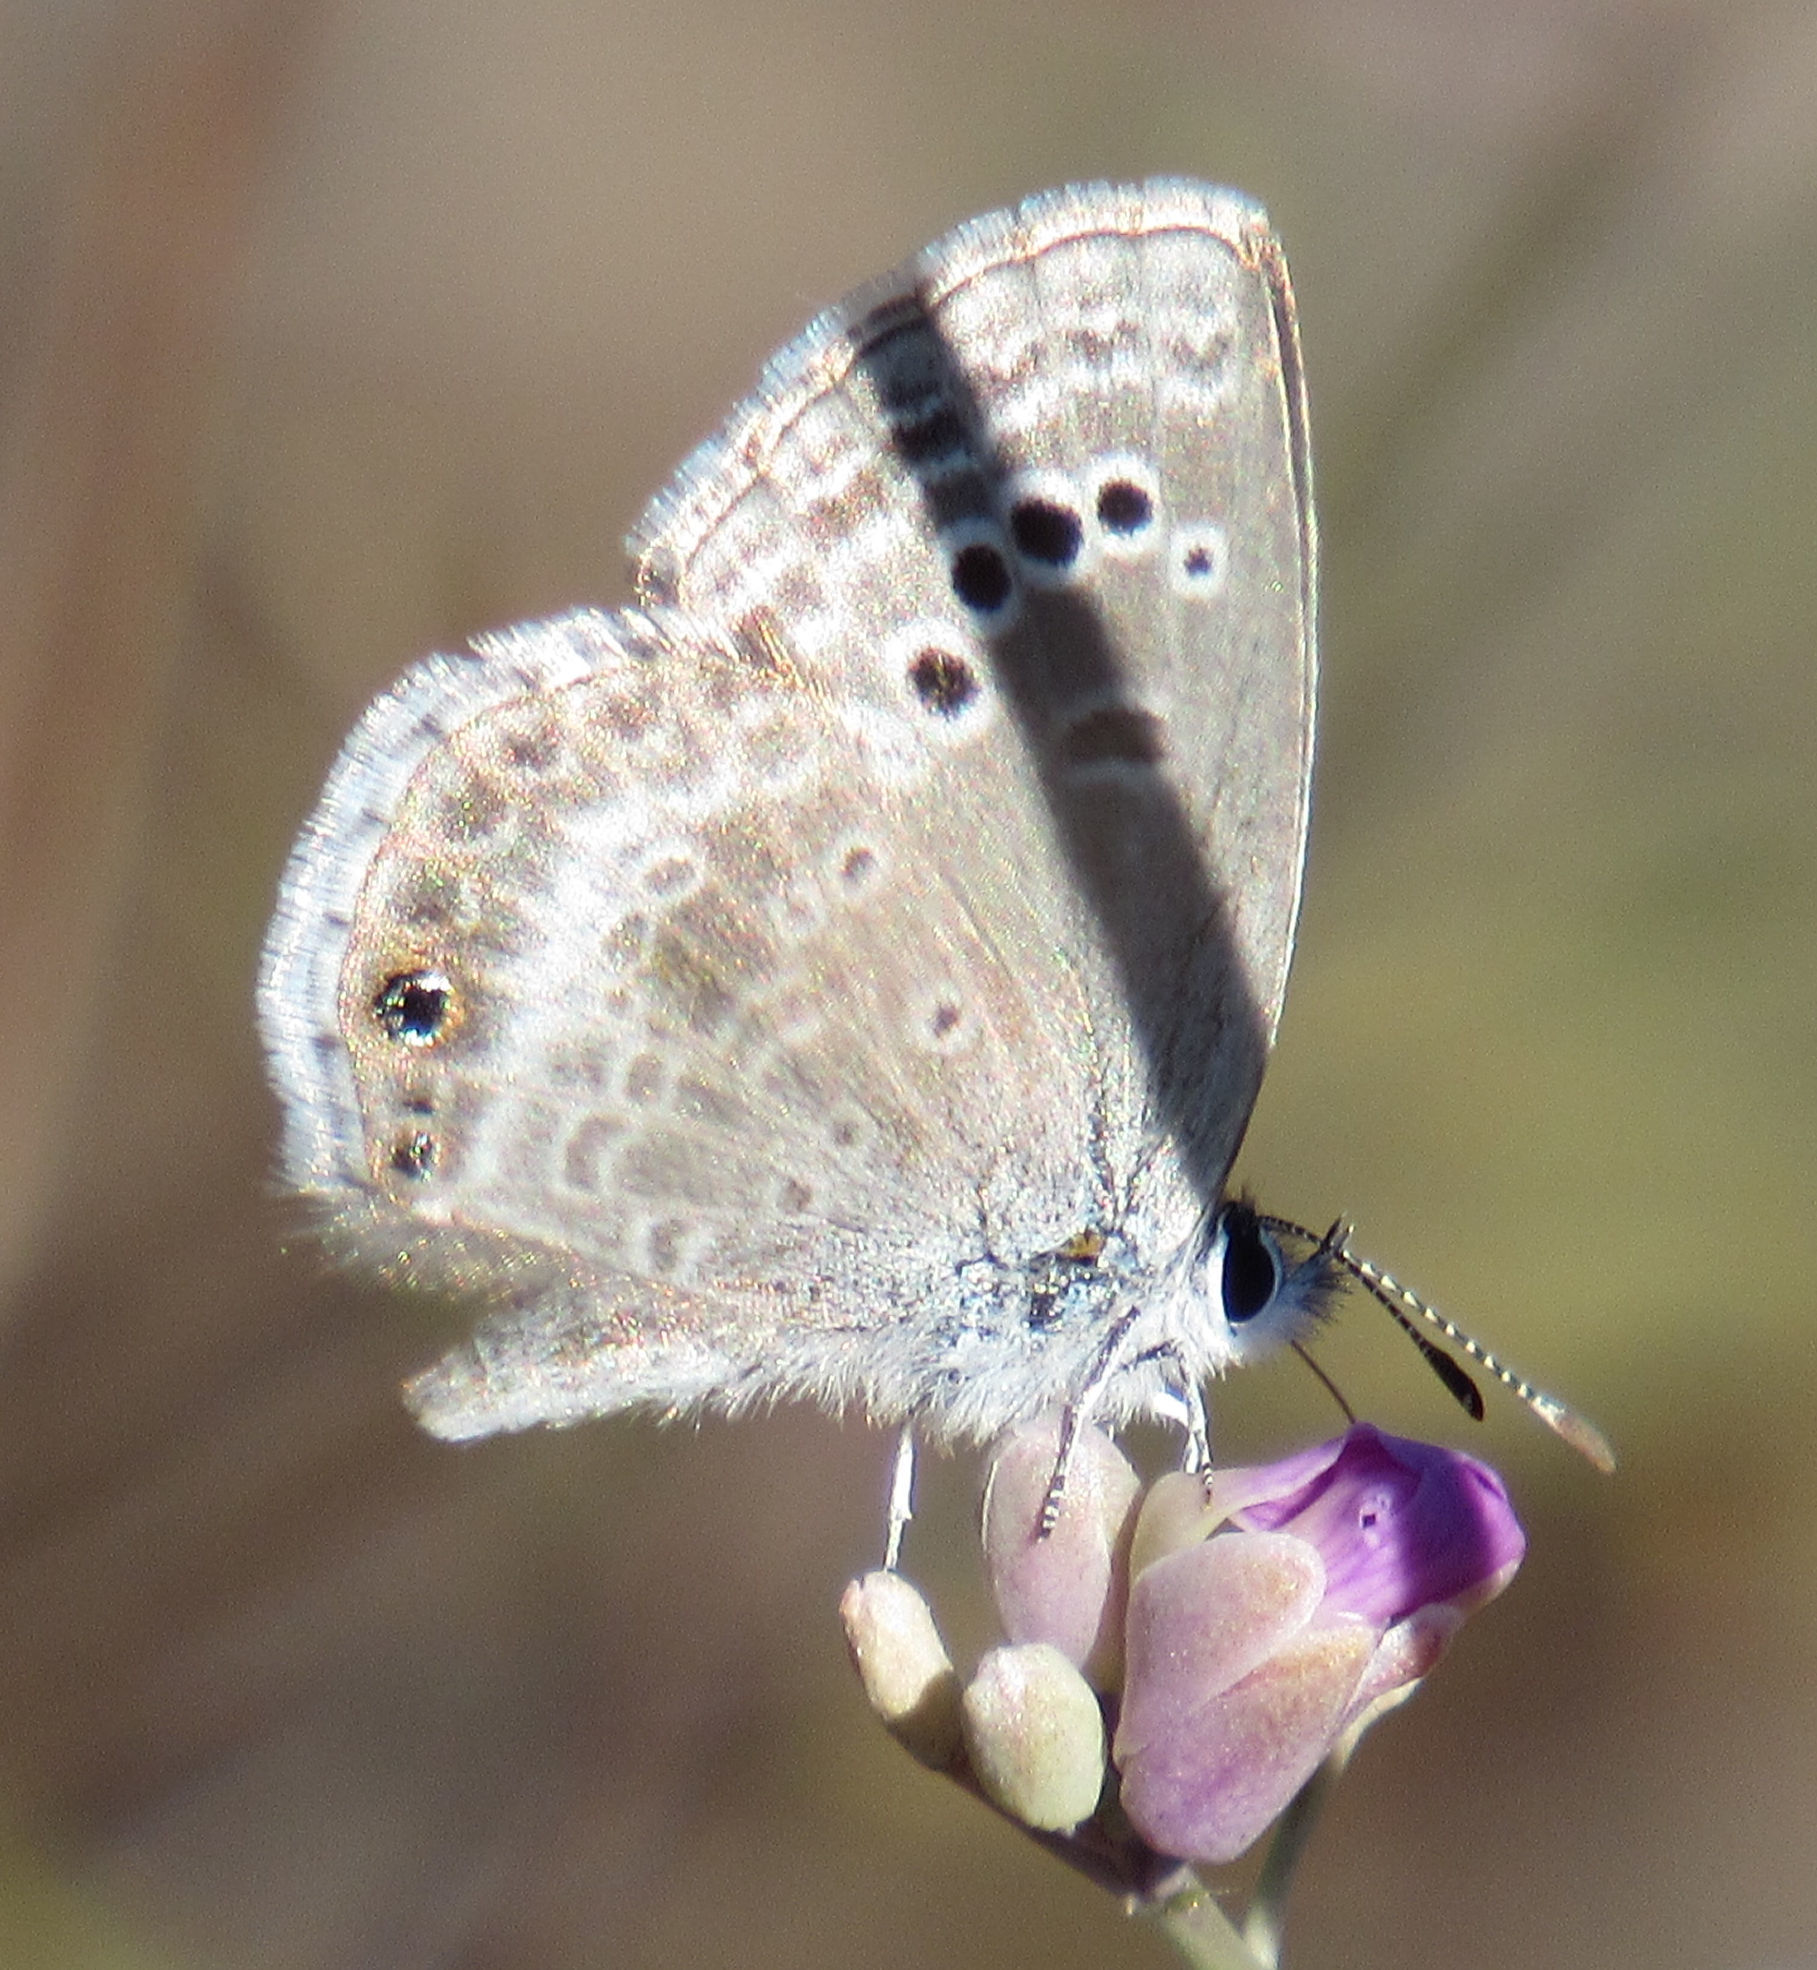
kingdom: Animalia
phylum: Arthropoda
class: Insecta
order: Lepidoptera
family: Lycaenidae
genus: Echinargus
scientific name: Echinargus isola
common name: Reakirt's blue
